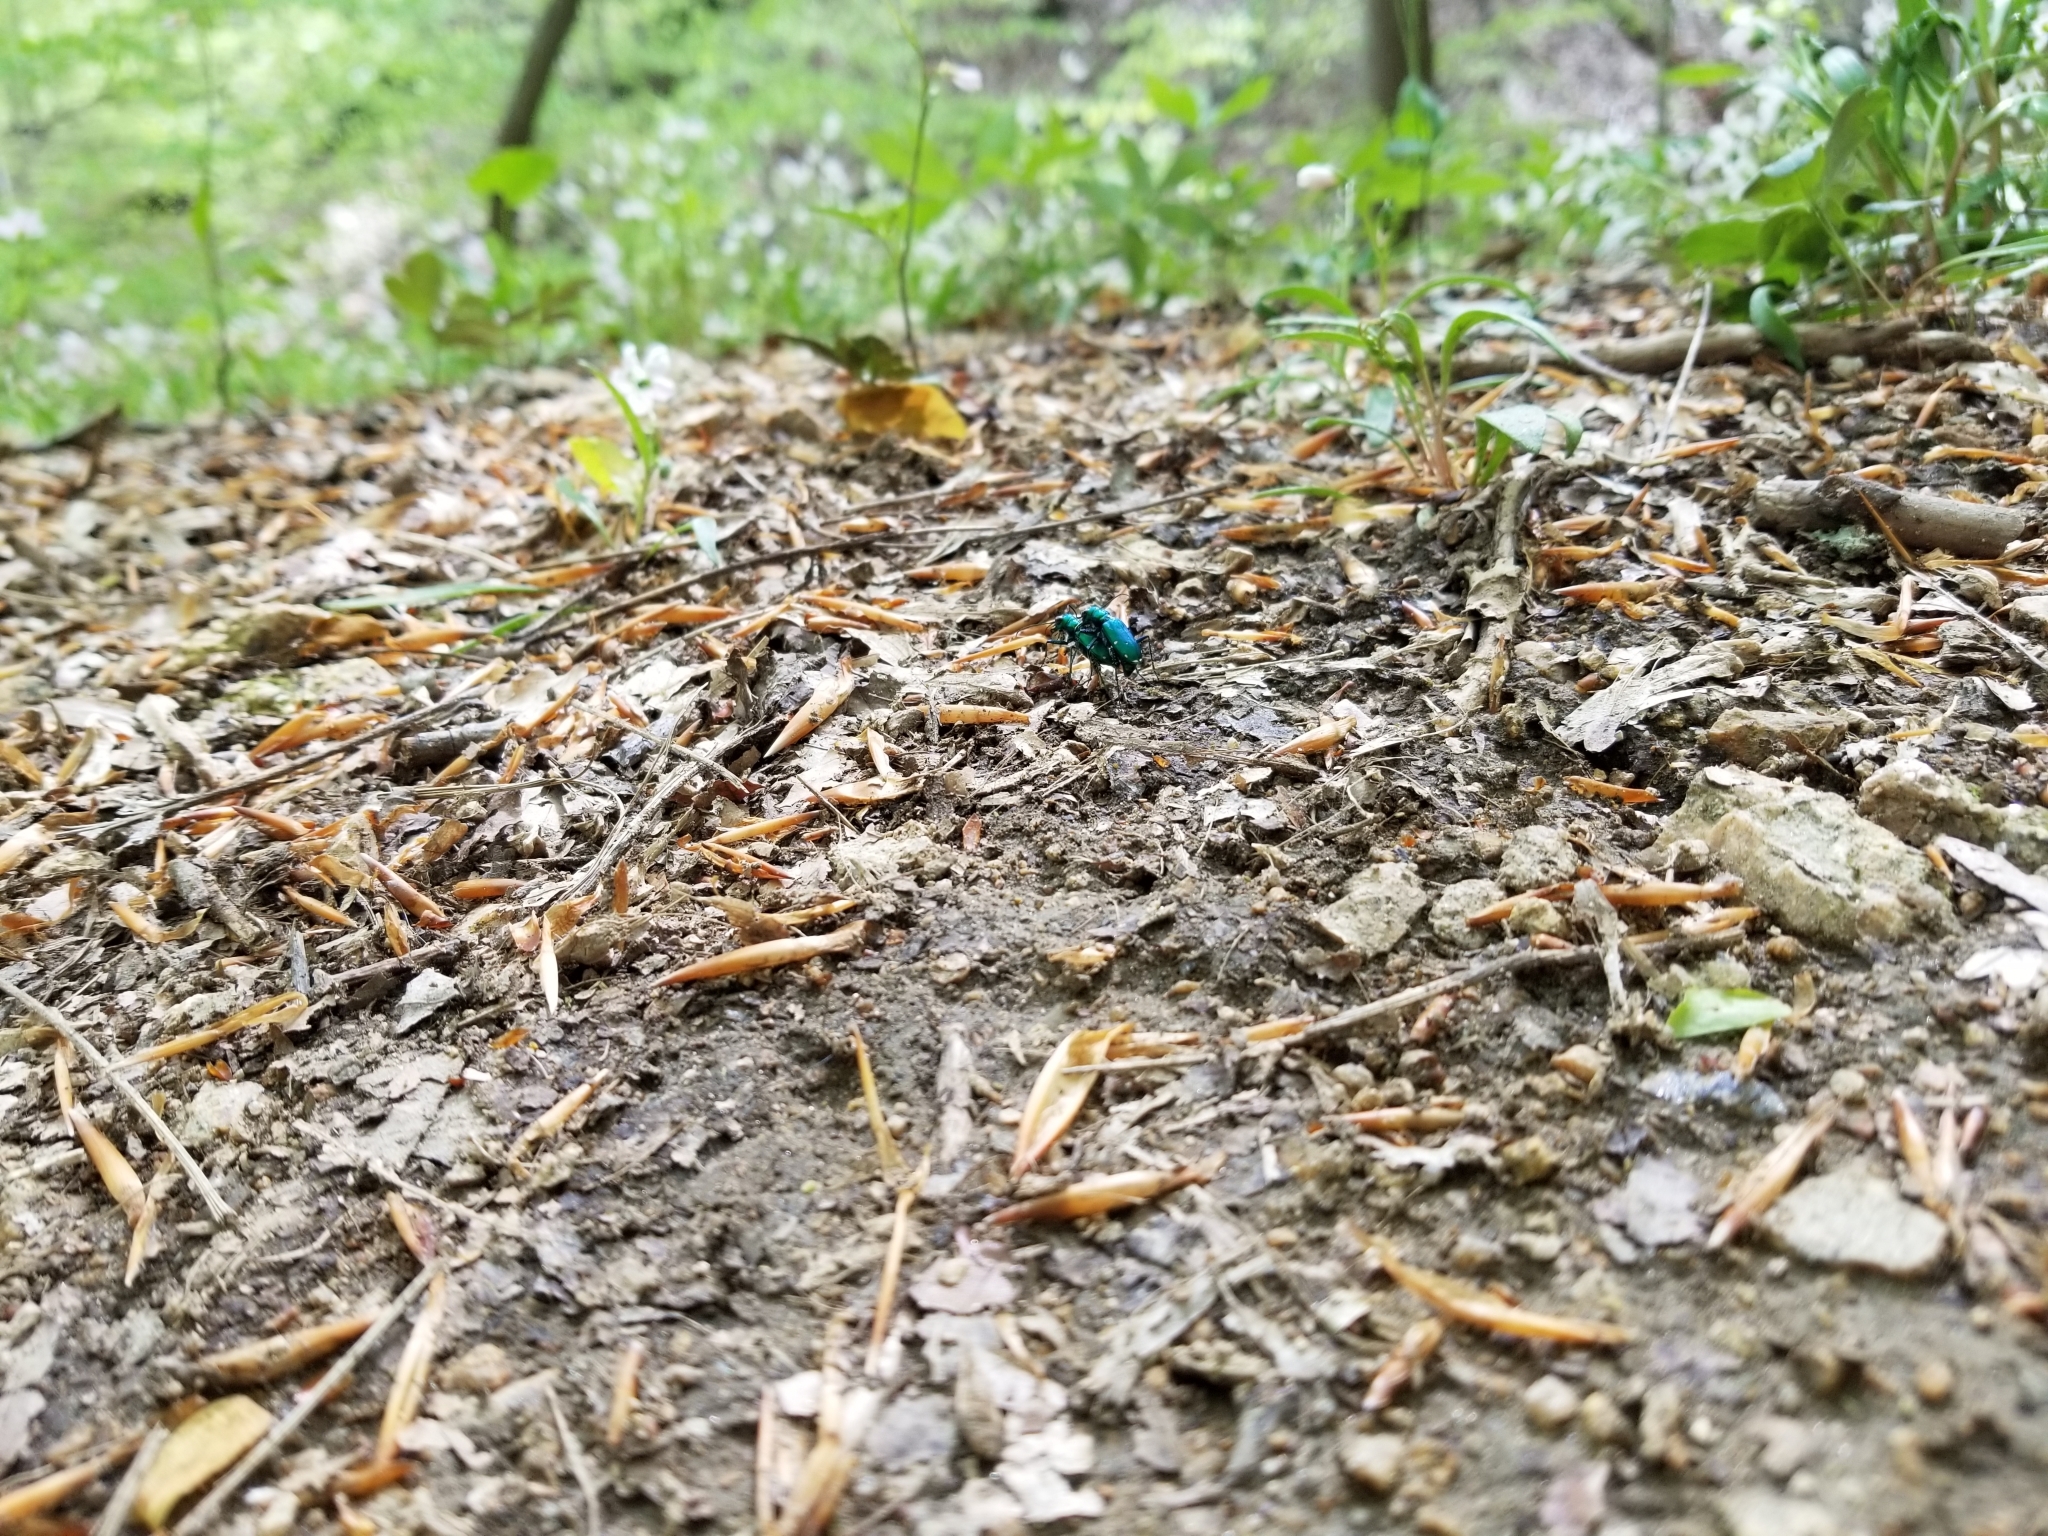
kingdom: Animalia
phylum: Arthropoda
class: Insecta
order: Coleoptera
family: Carabidae
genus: Cicindela
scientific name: Cicindela sexguttata
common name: Six-spotted tiger beetle
